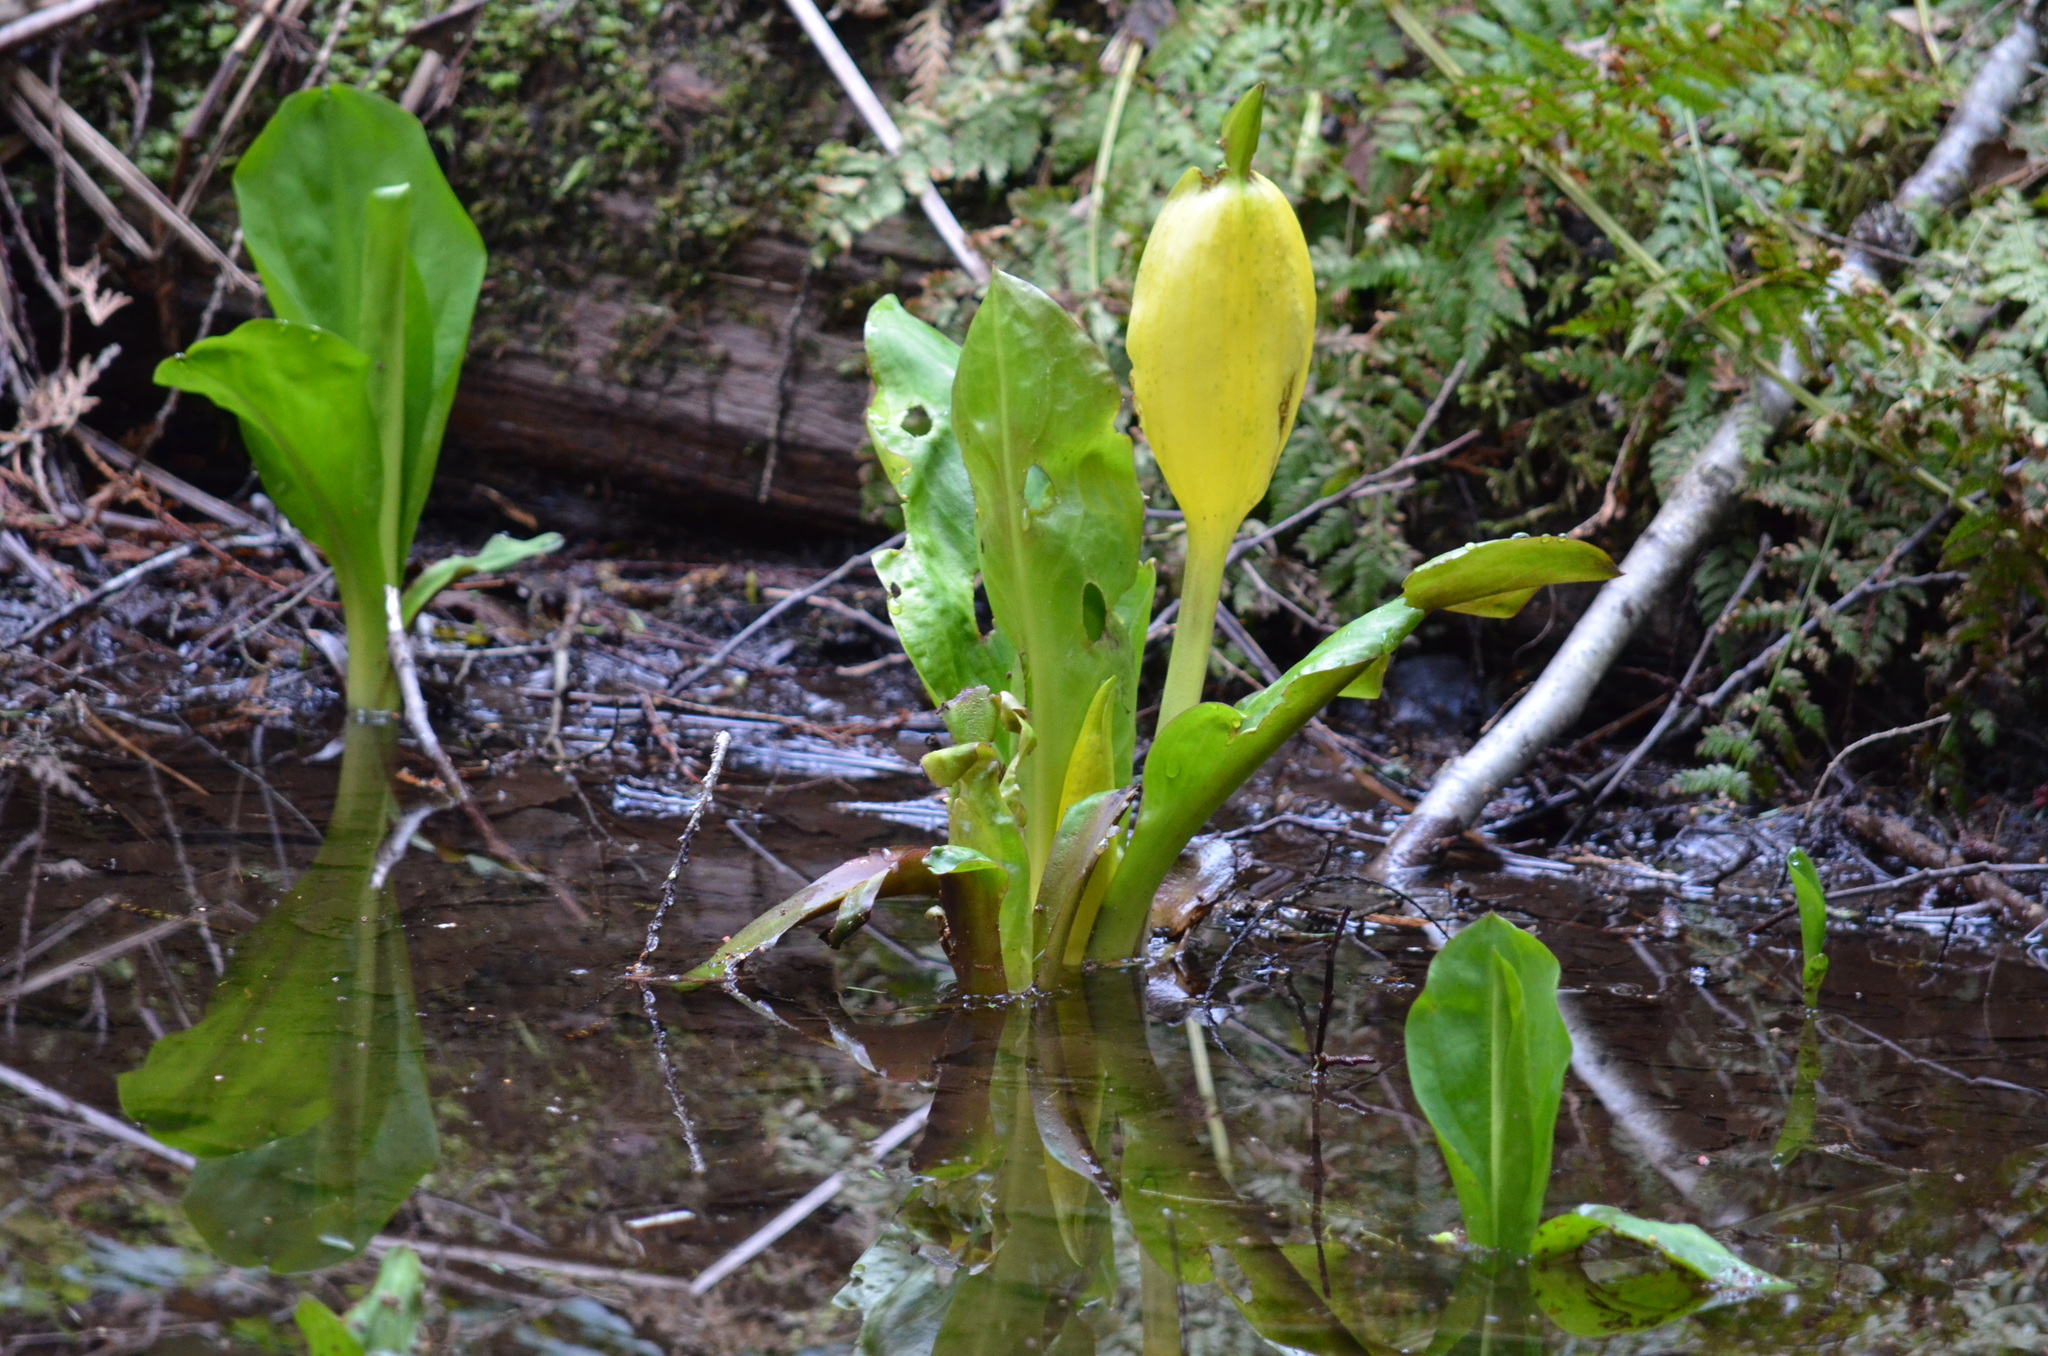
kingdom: Plantae
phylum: Tracheophyta
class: Liliopsida
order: Alismatales
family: Araceae
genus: Lysichiton
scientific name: Lysichiton americanus
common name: American skunk cabbage
